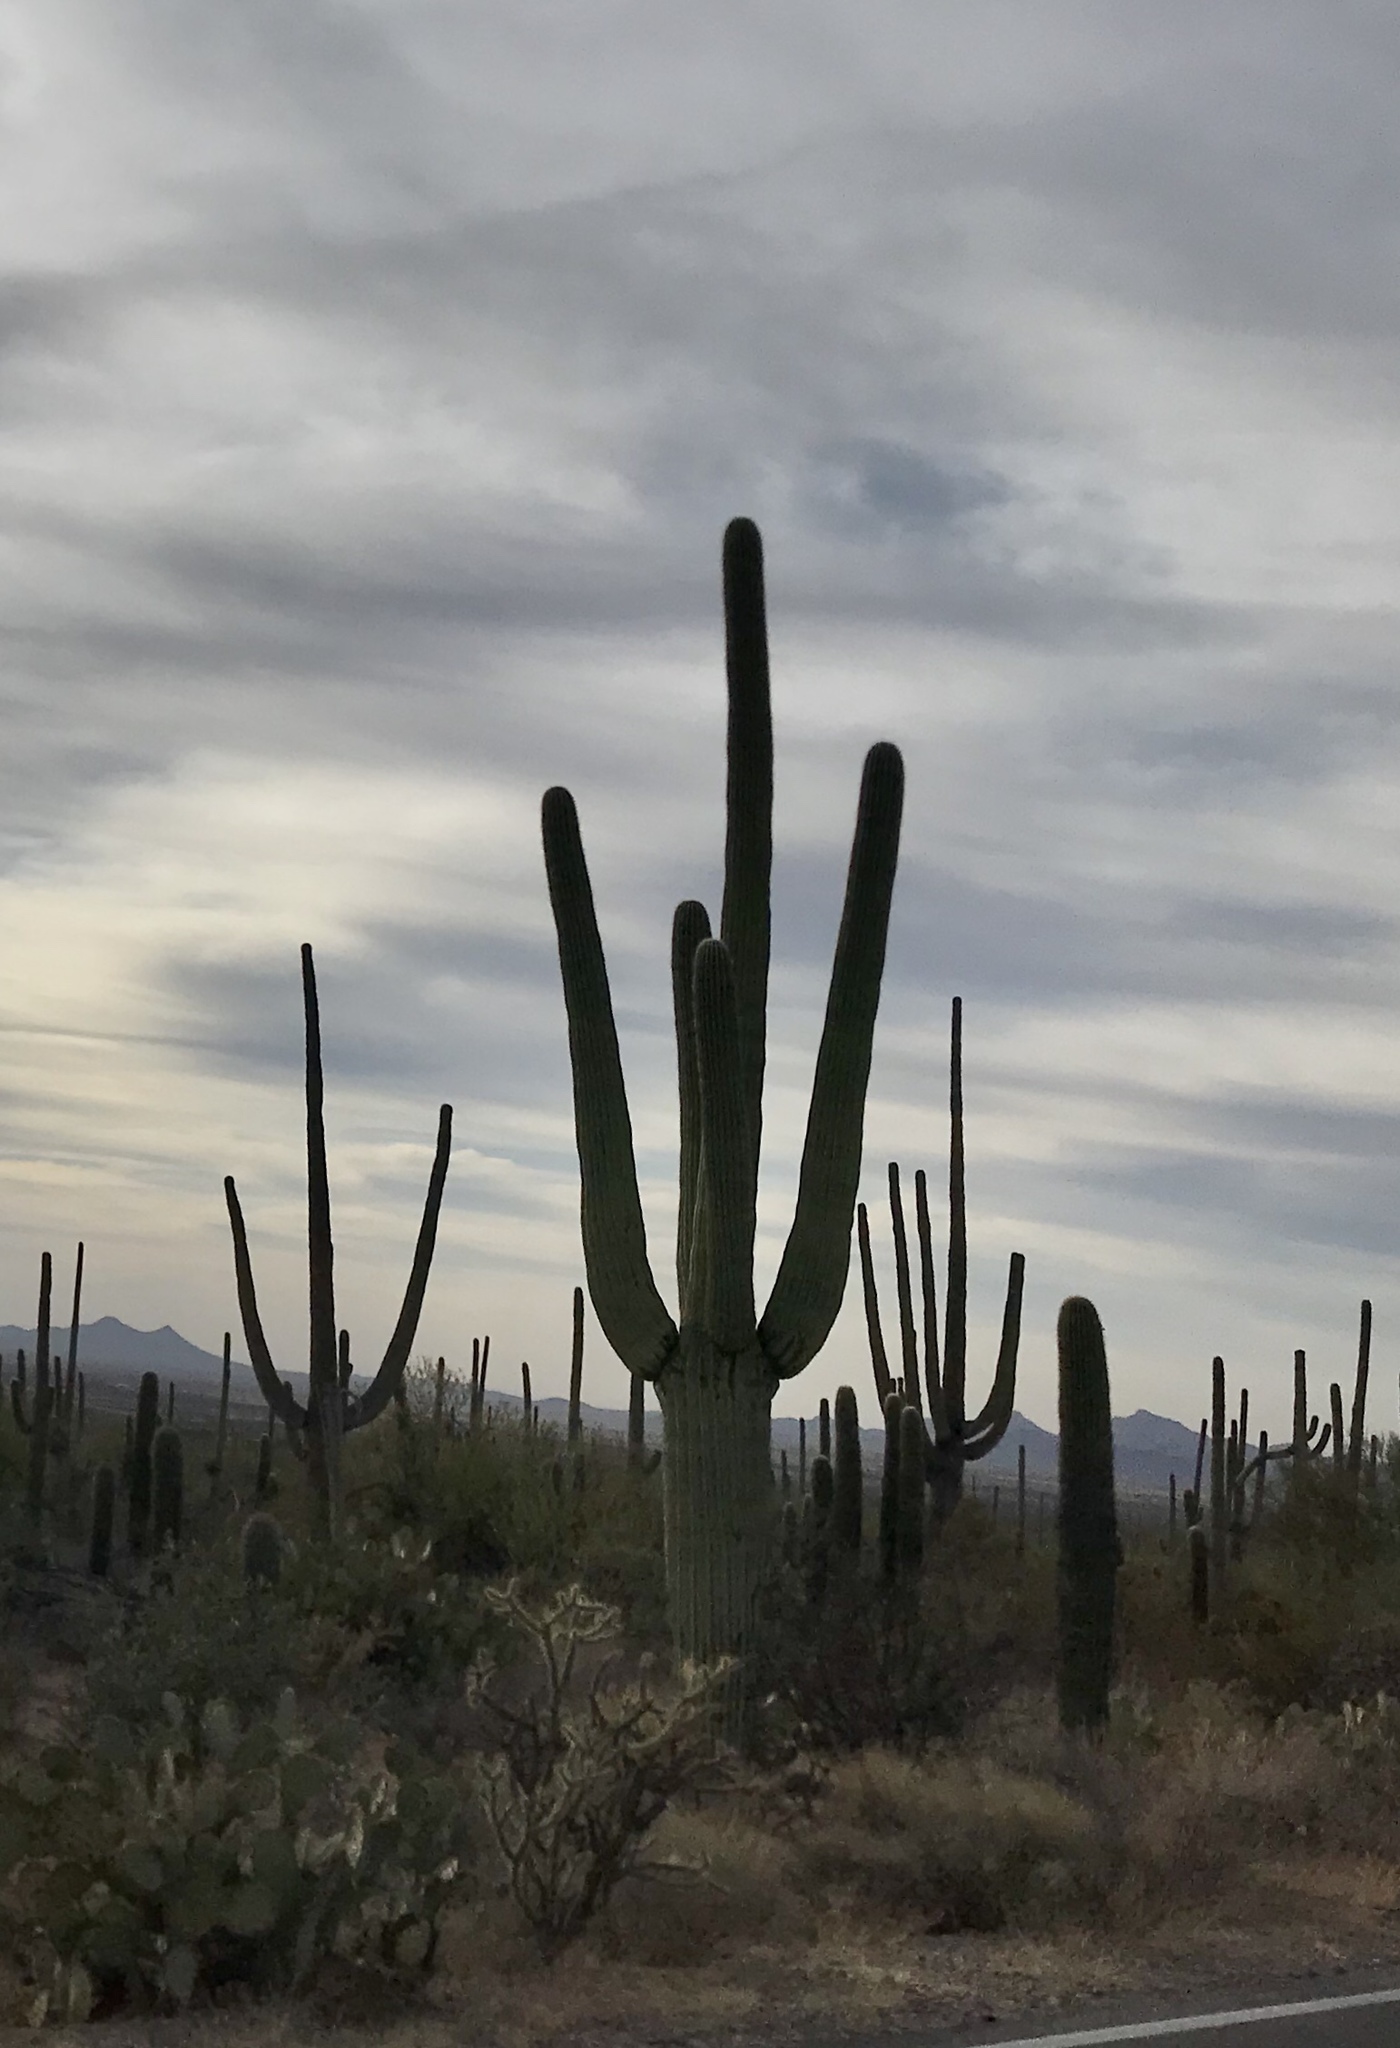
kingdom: Plantae
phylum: Tracheophyta
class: Magnoliopsida
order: Caryophyllales
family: Cactaceae
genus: Carnegiea
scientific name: Carnegiea gigantea
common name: Saguaro
